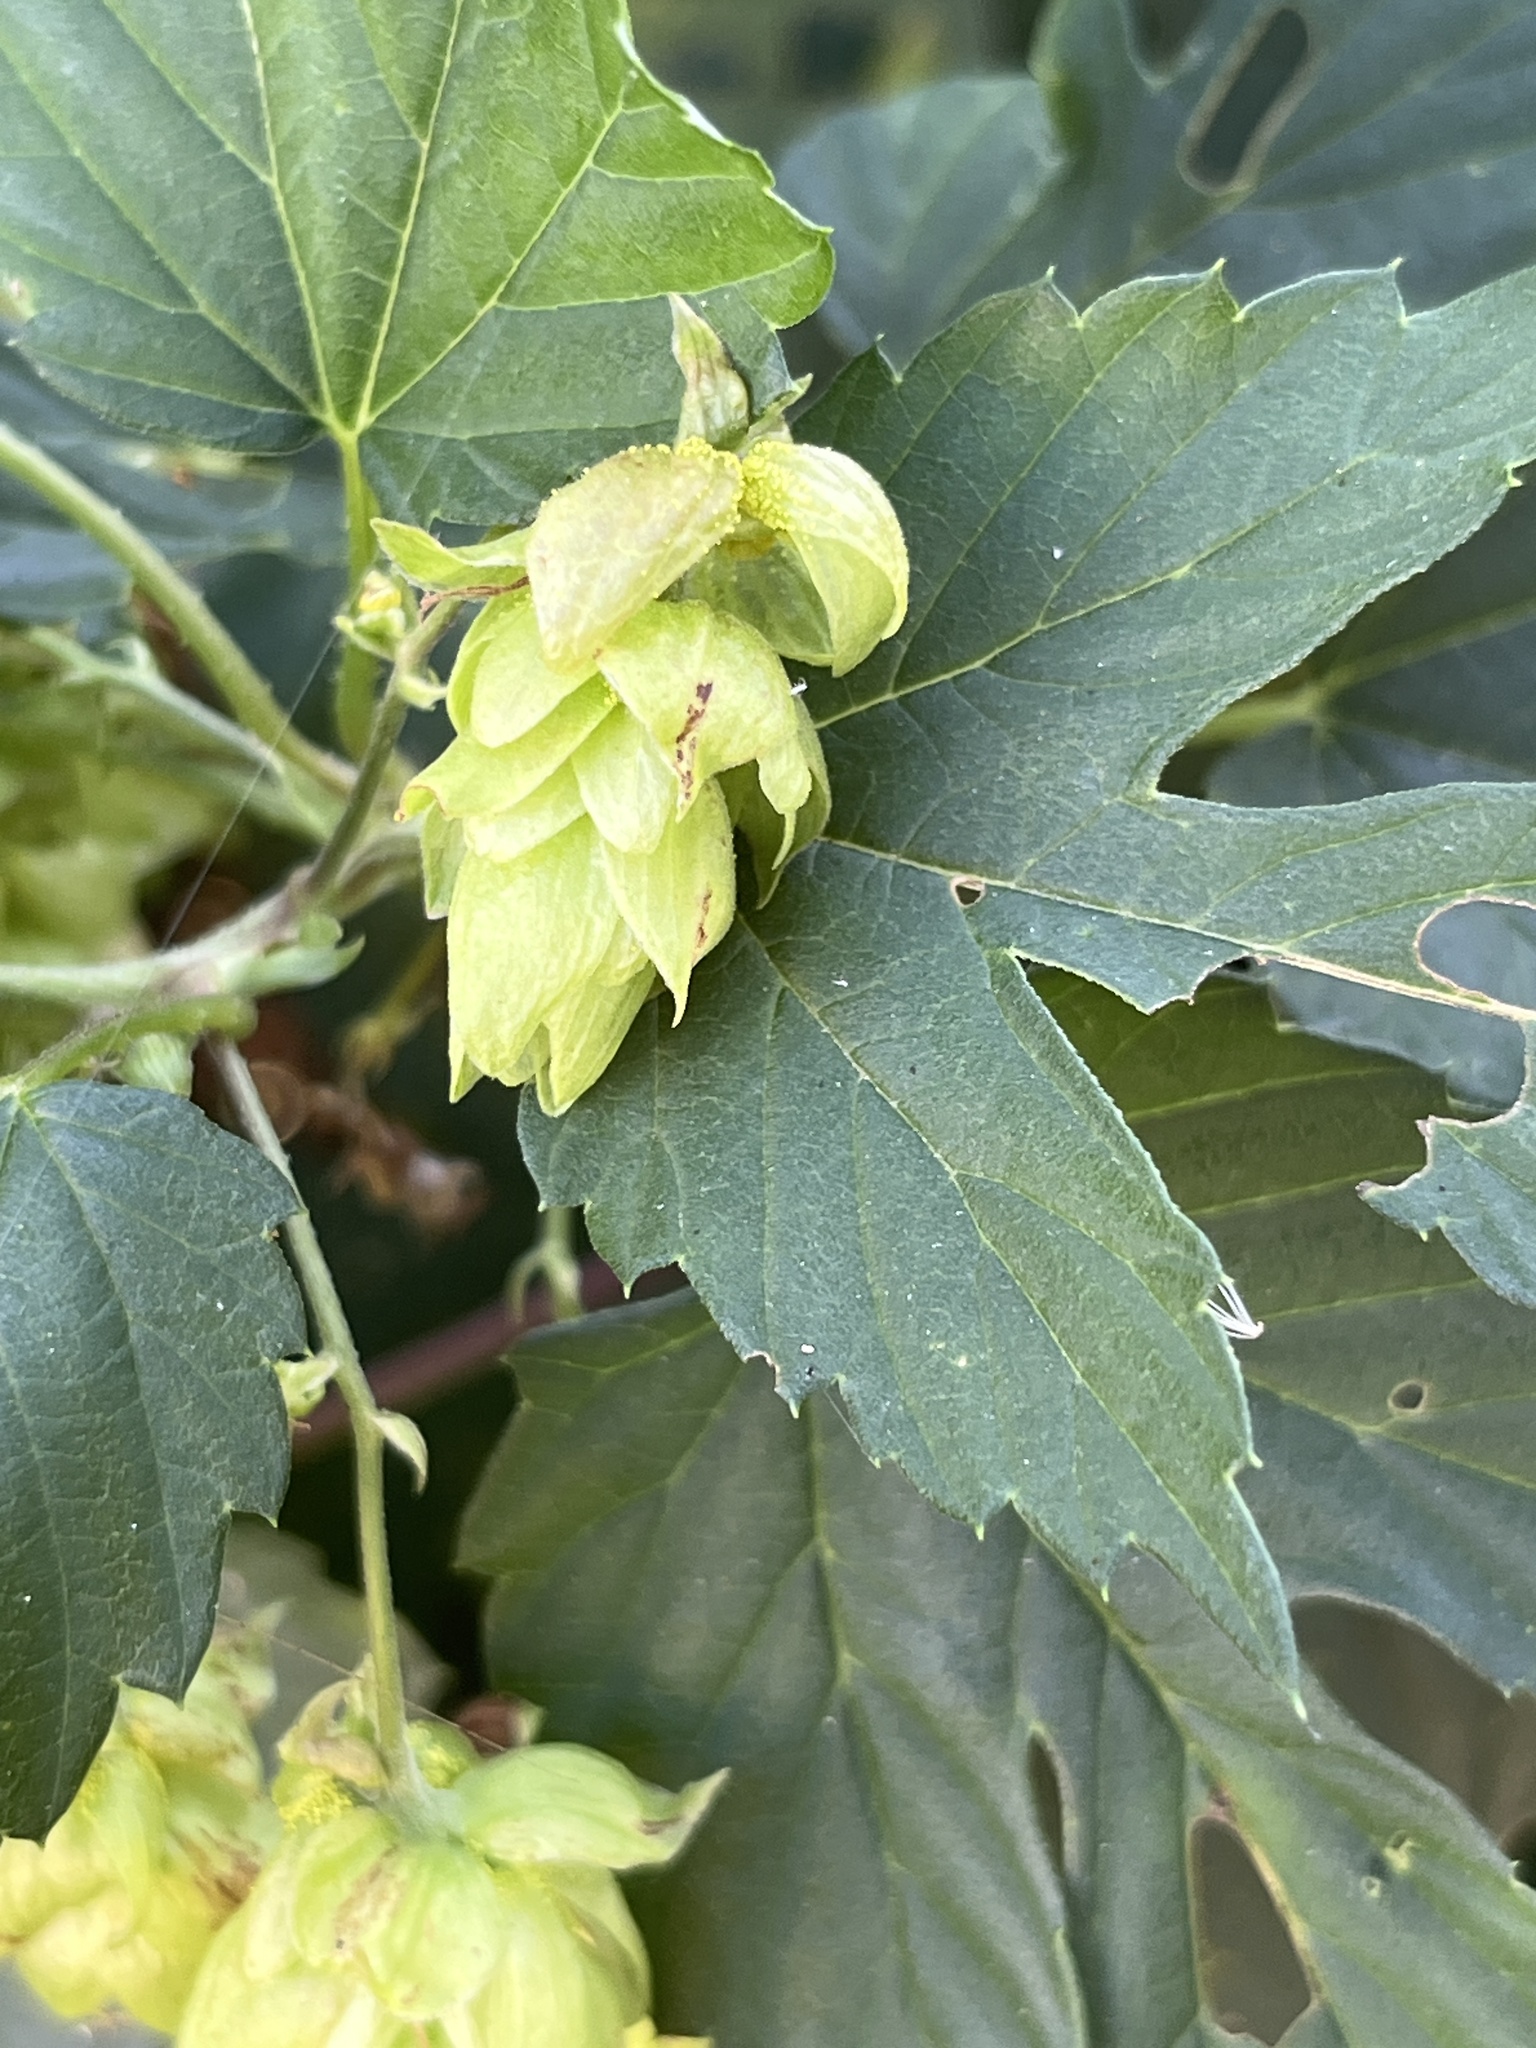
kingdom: Plantae
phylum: Tracheophyta
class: Magnoliopsida
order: Rosales
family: Cannabaceae
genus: Humulus
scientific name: Humulus lupulus
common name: Hop
